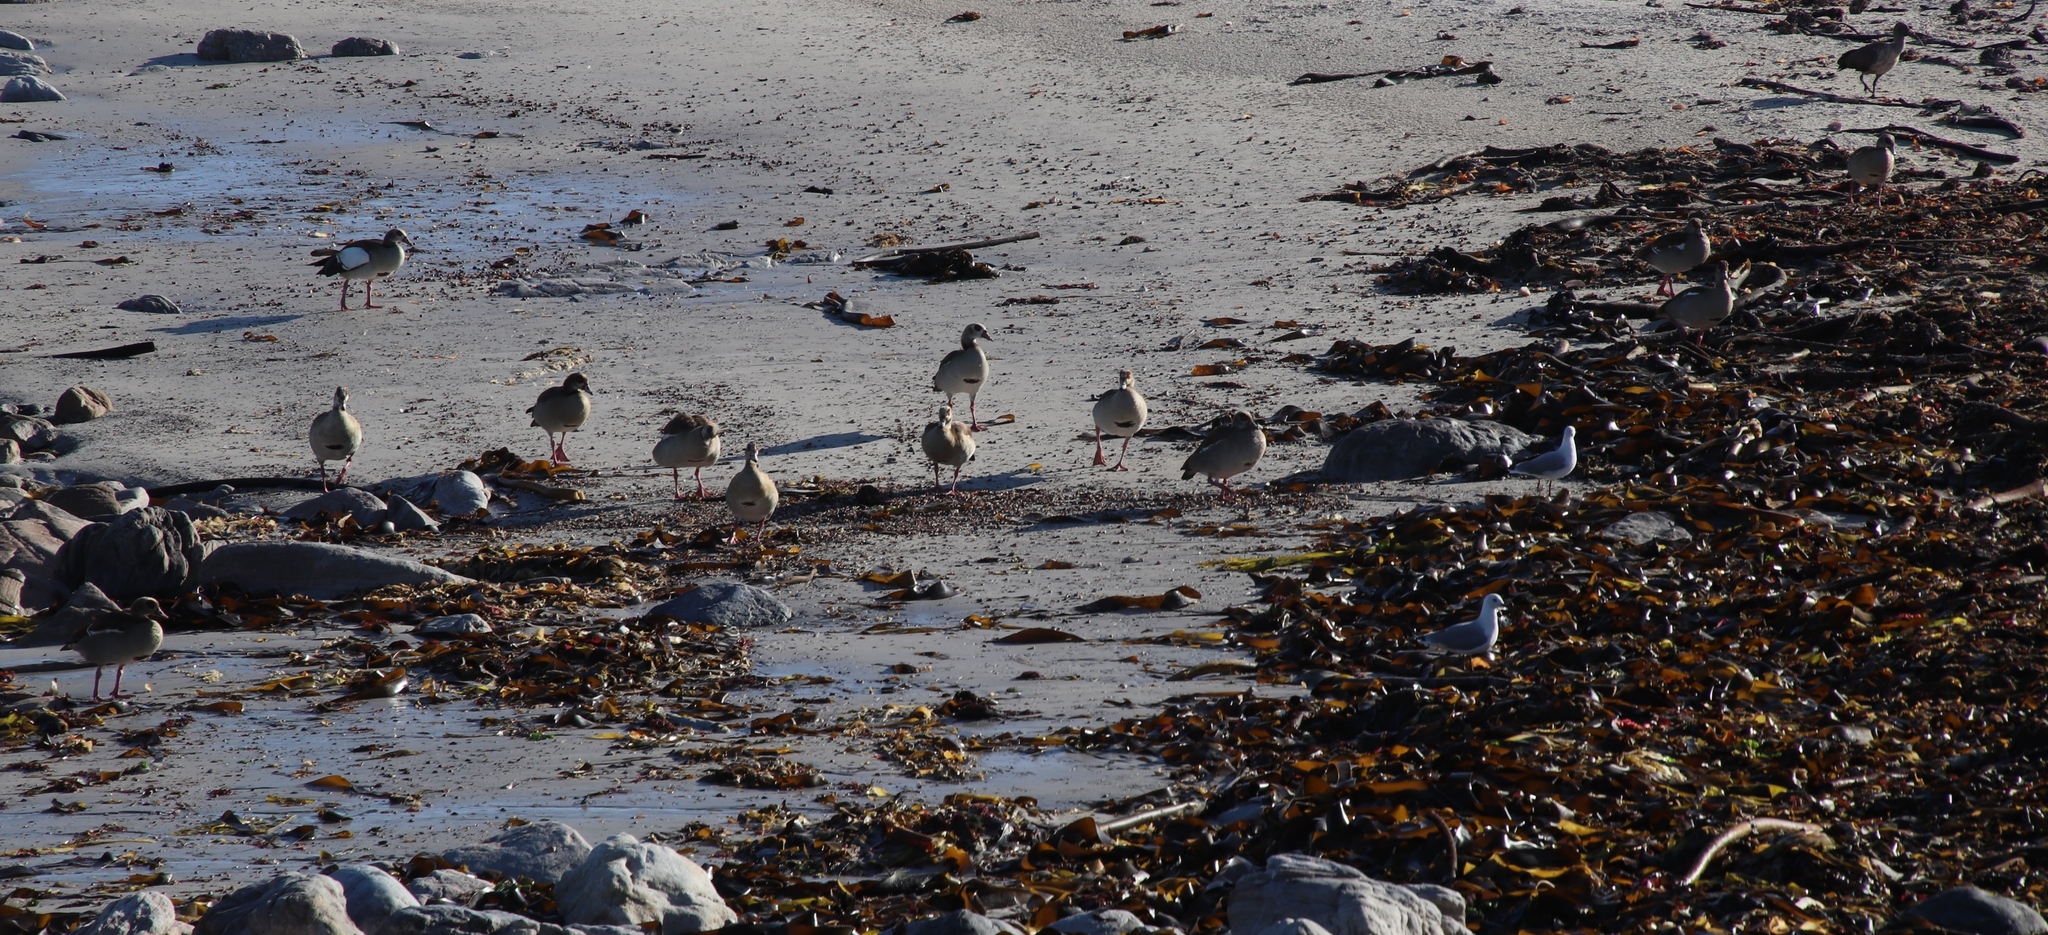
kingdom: Animalia
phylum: Chordata
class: Aves
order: Anseriformes
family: Anatidae
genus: Alopochen
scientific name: Alopochen aegyptiaca
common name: Egyptian goose
